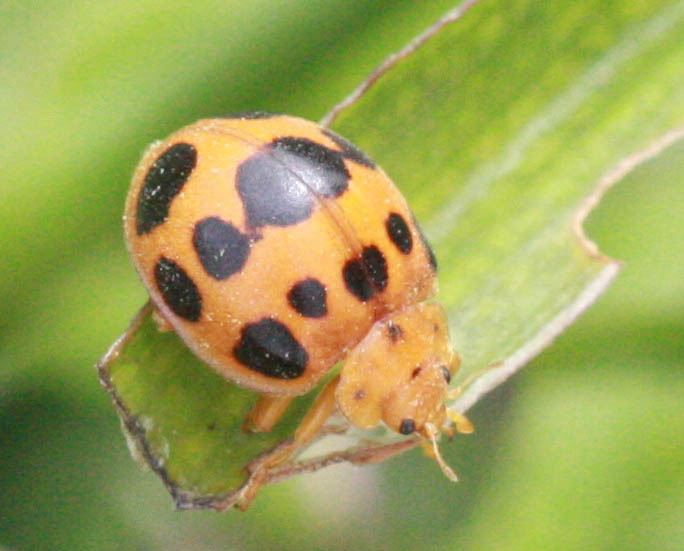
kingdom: Animalia
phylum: Arthropoda
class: Insecta
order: Coleoptera
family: Coccinellidae
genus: Epilachna
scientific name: Epilachna borealis
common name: Squash beetle
